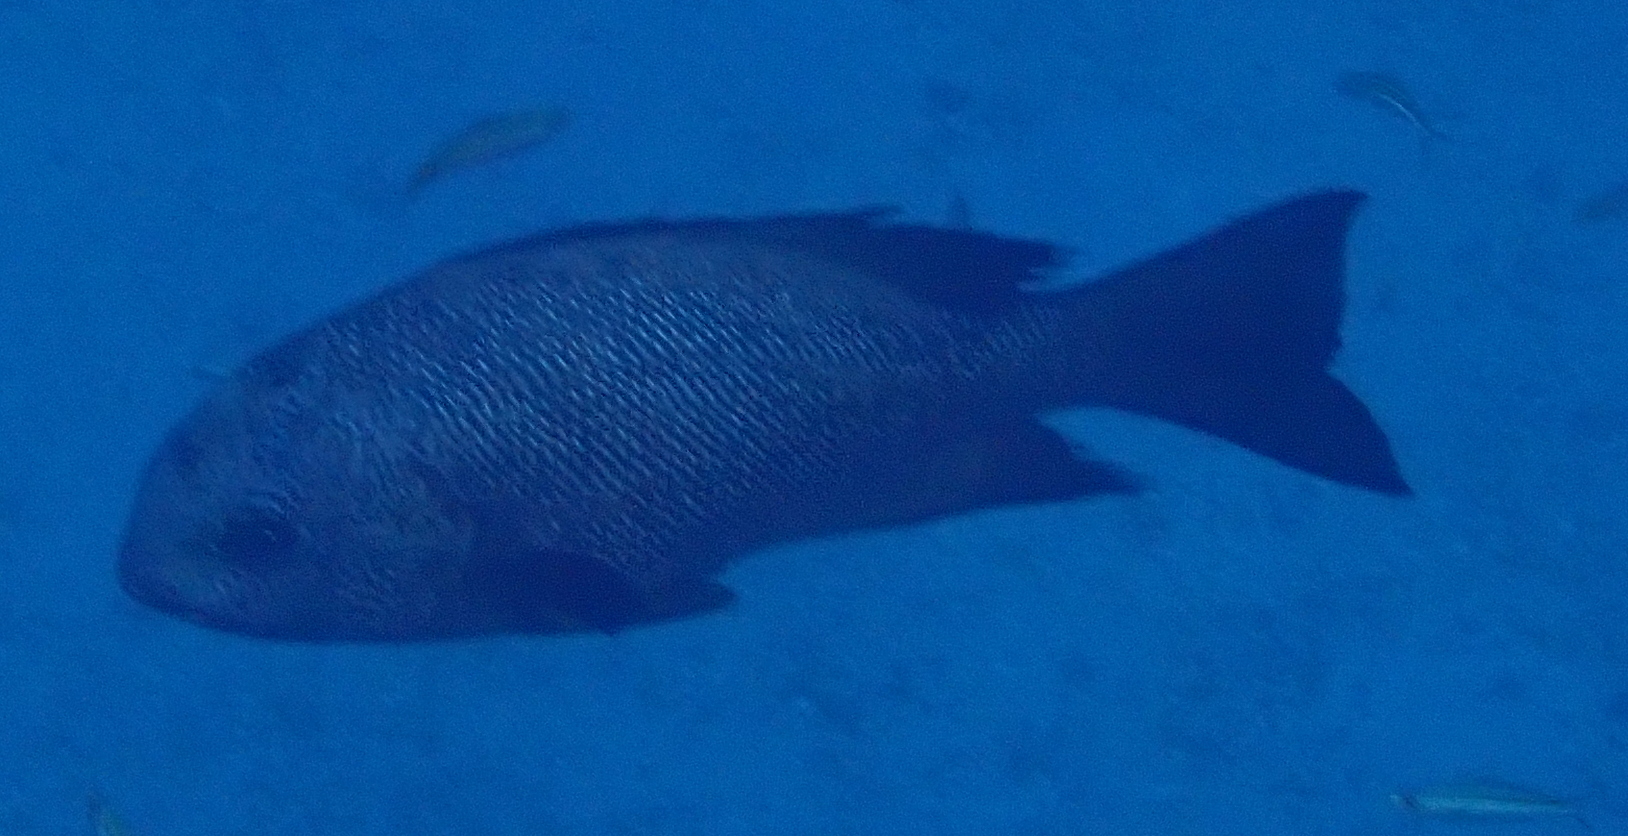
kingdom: Animalia
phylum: Chordata
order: Perciformes
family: Lutjanidae
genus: Macolor
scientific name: Macolor niger
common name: Black snapper
